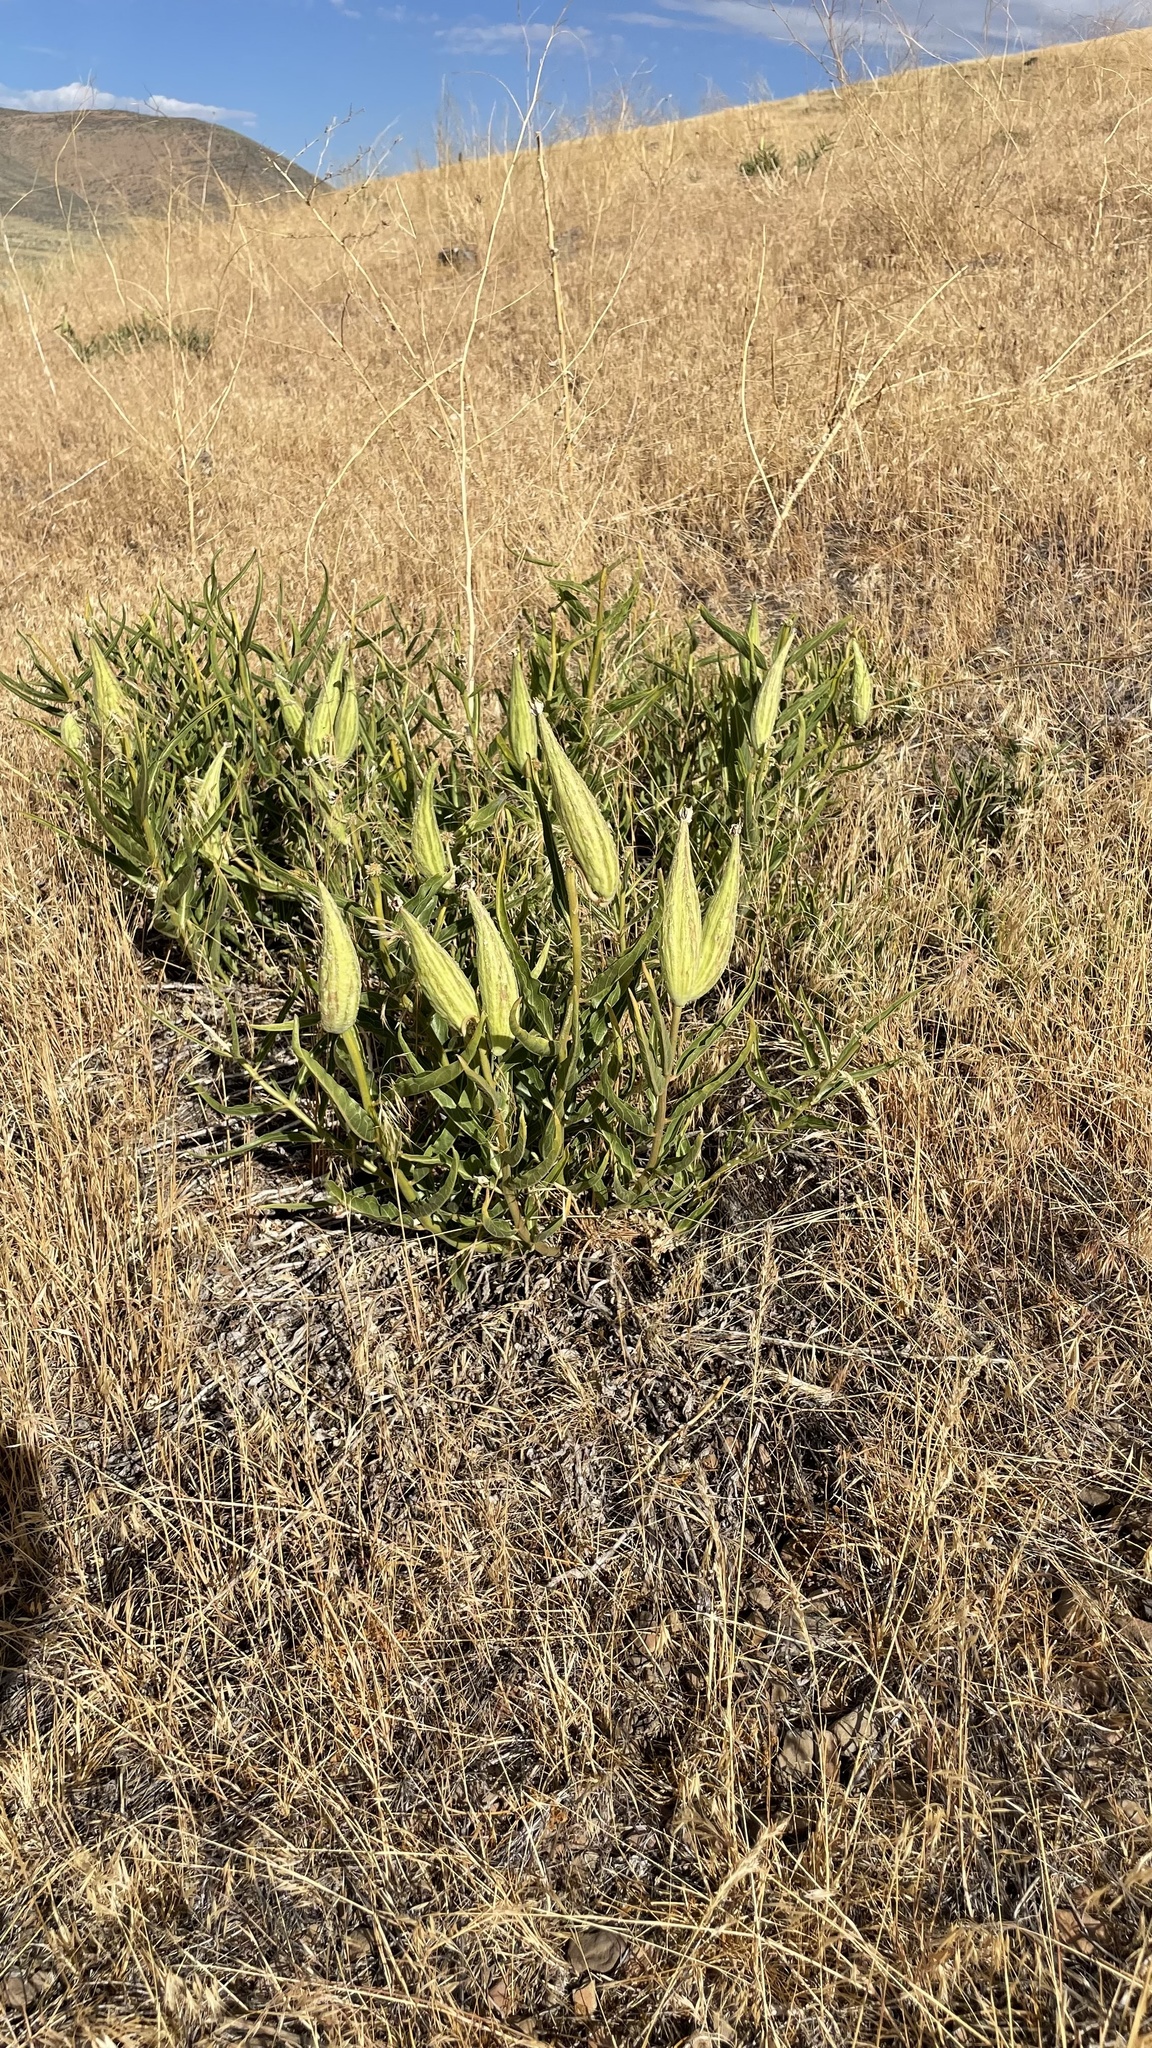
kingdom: Plantae
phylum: Tracheophyta
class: Magnoliopsida
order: Gentianales
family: Apocynaceae
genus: Asclepias
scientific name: Asclepias asperula
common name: Antelope horns
